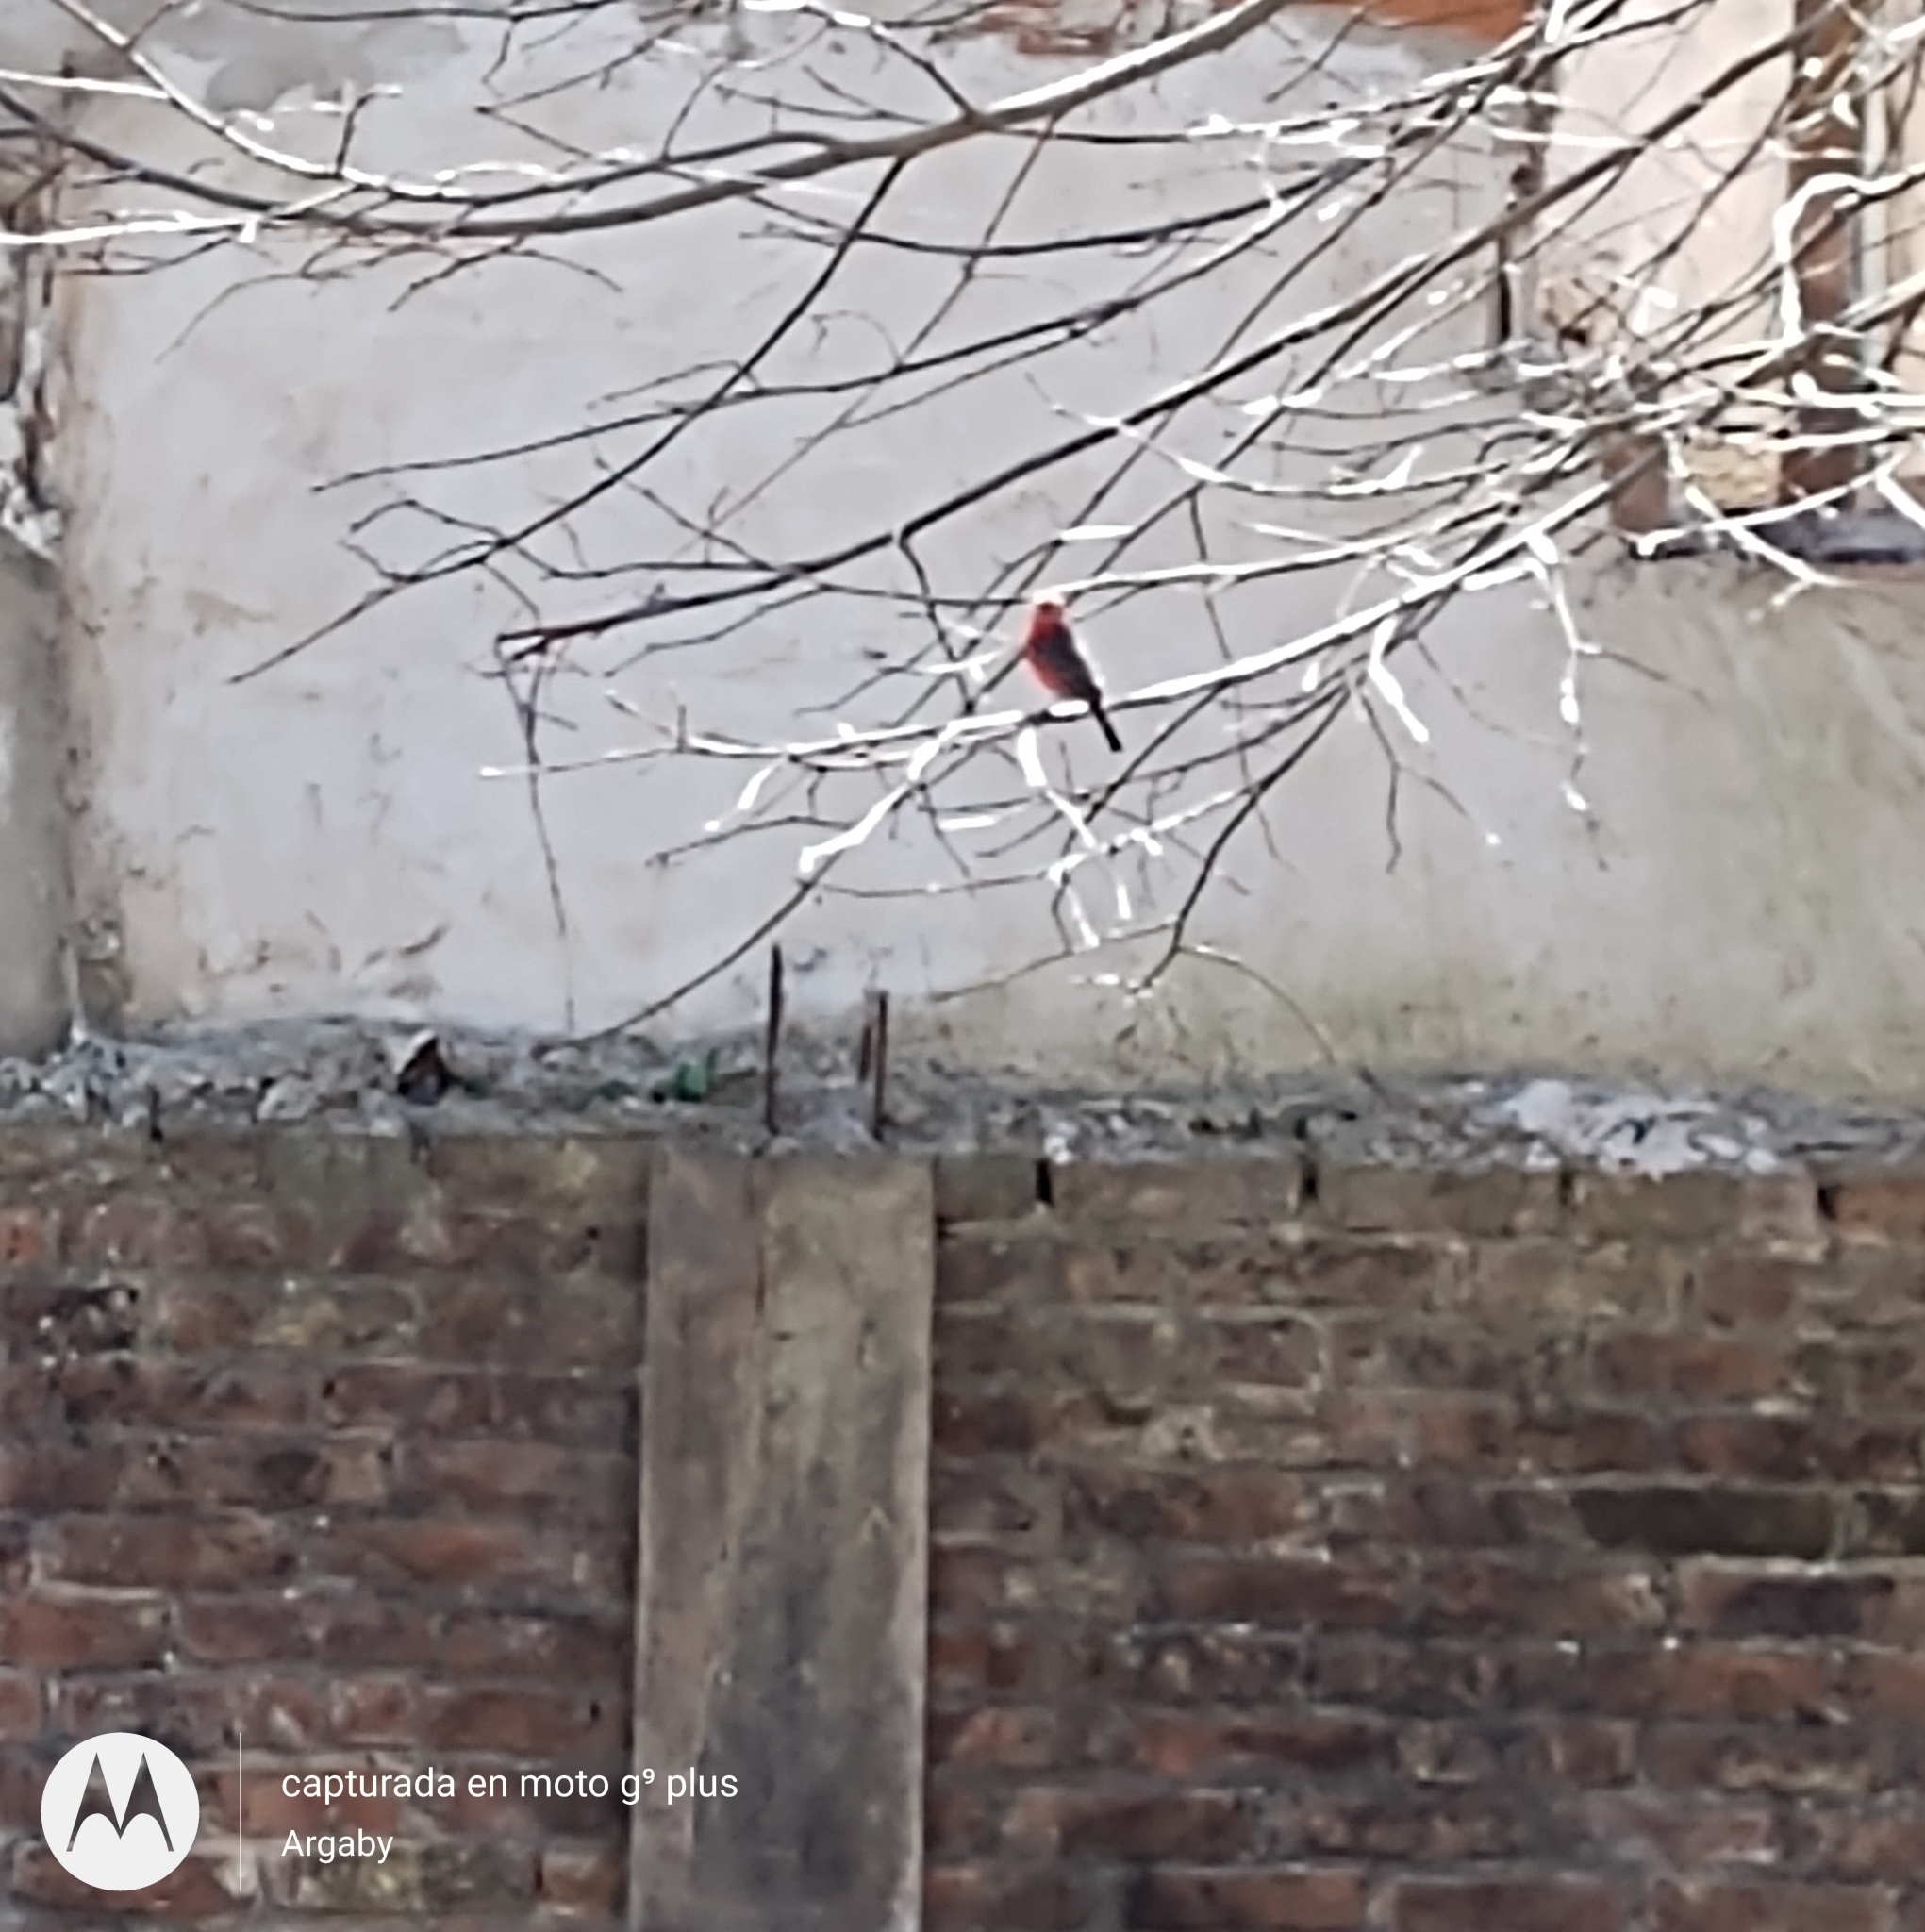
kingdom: Animalia
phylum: Chordata
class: Aves
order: Passeriformes
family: Tyrannidae
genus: Pyrocephalus
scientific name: Pyrocephalus rubinus
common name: Vermilion flycatcher
